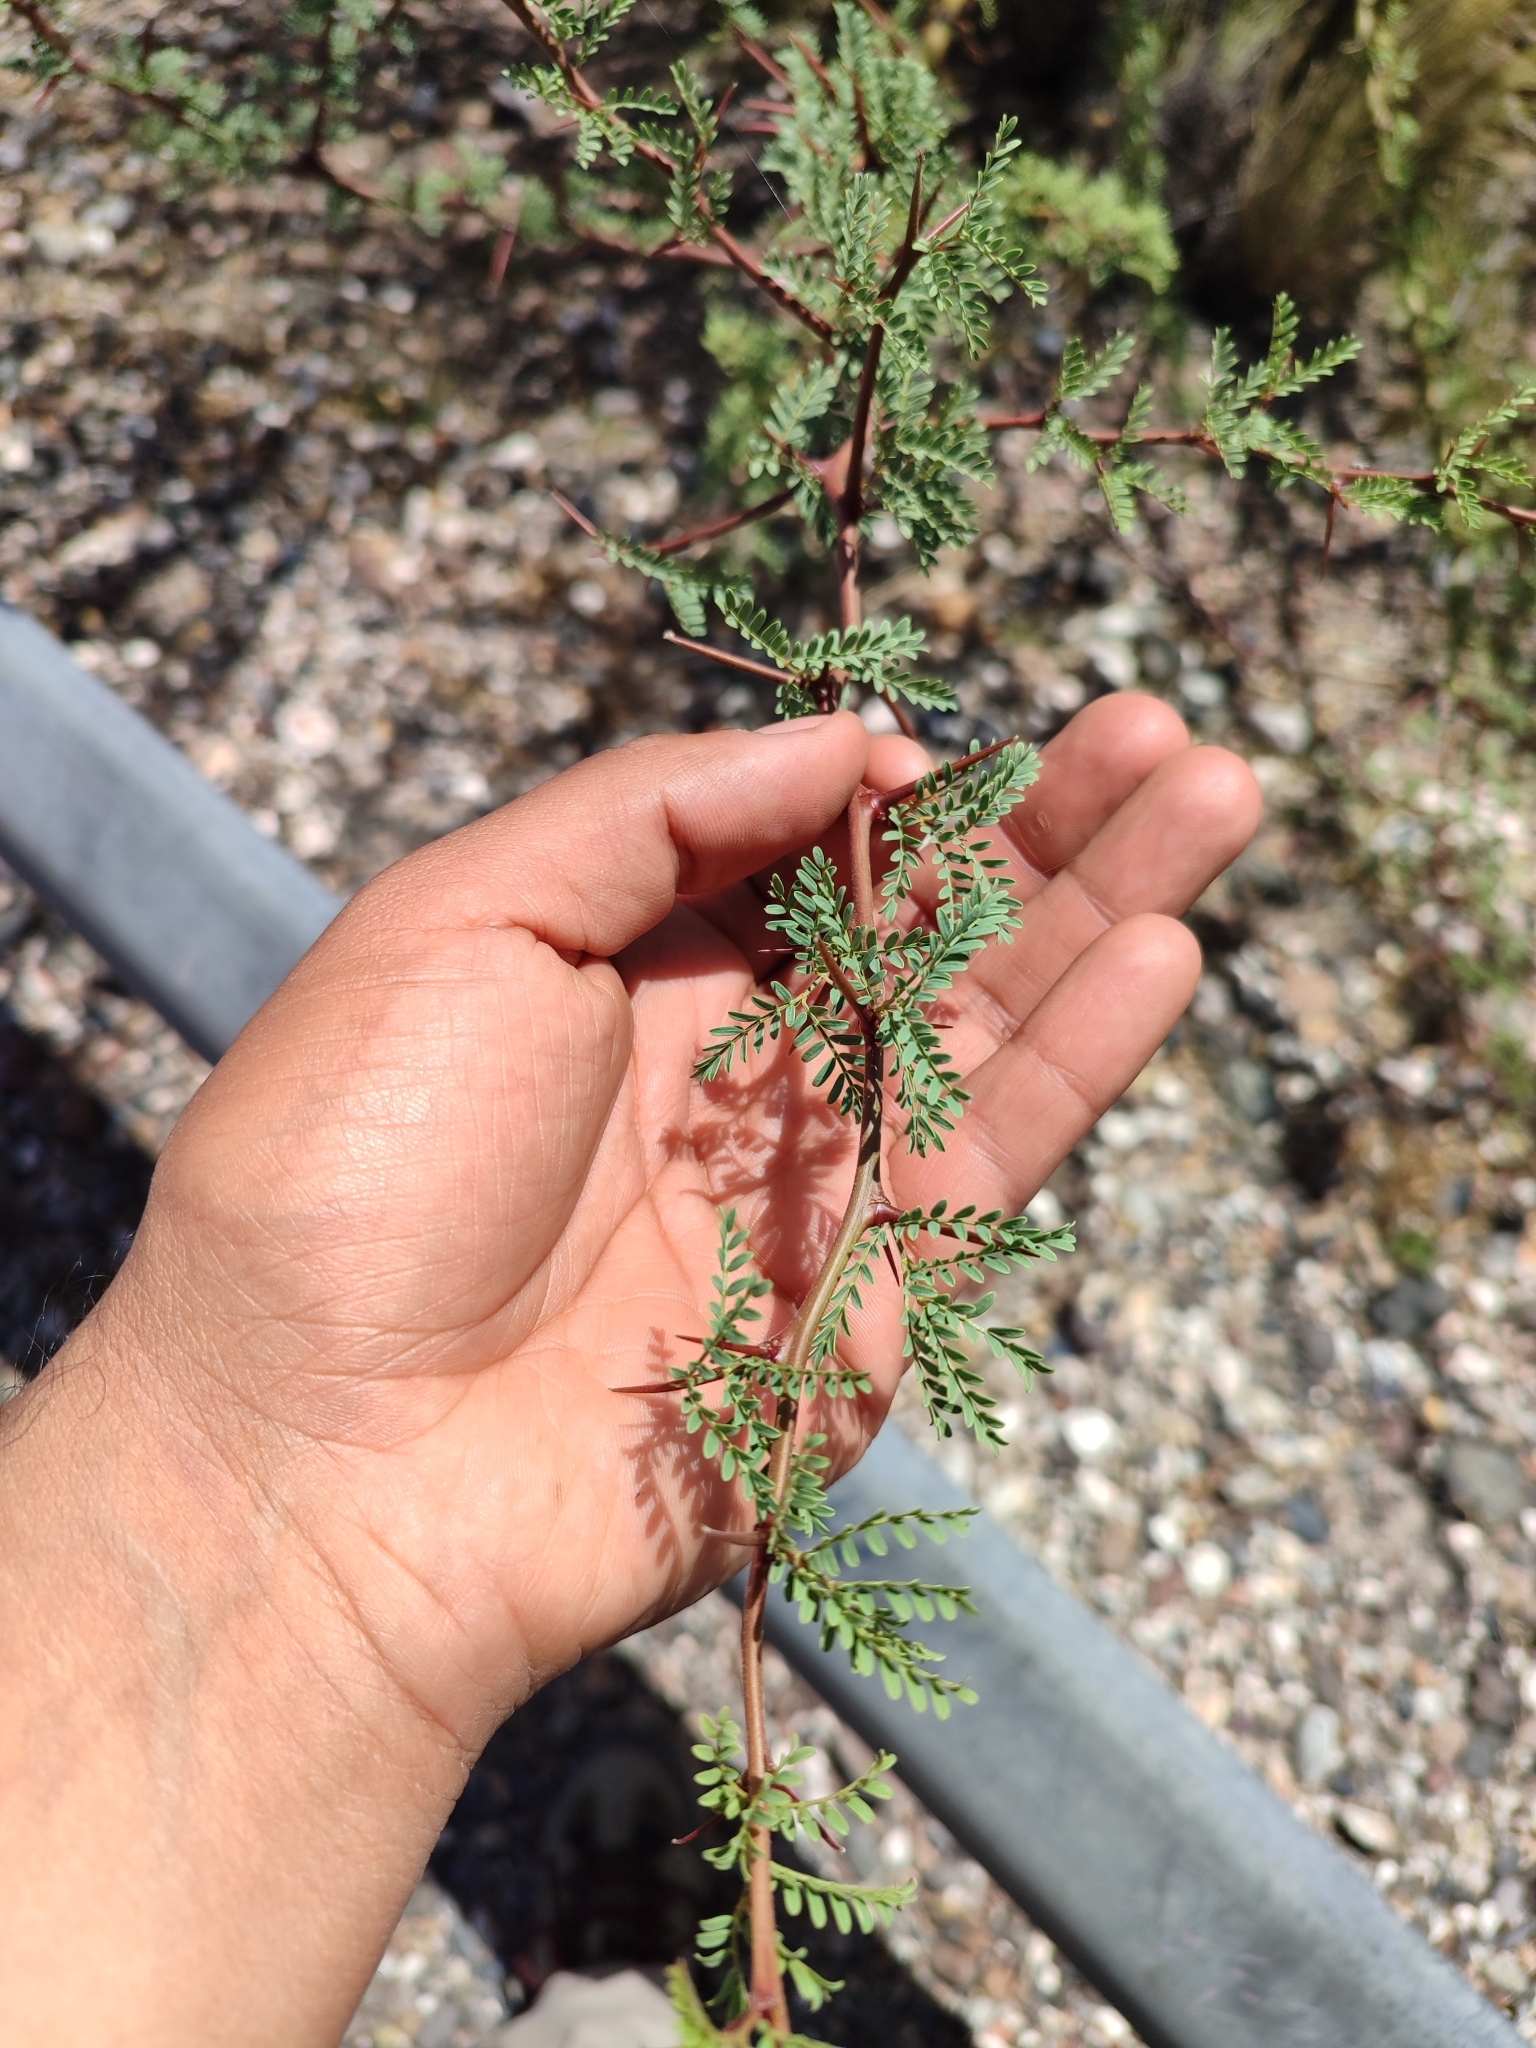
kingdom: Plantae
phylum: Tracheophyta
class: Magnoliopsida
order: Fabales
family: Fabaceae
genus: Parkinsonia
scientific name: Parkinsonia praecox
